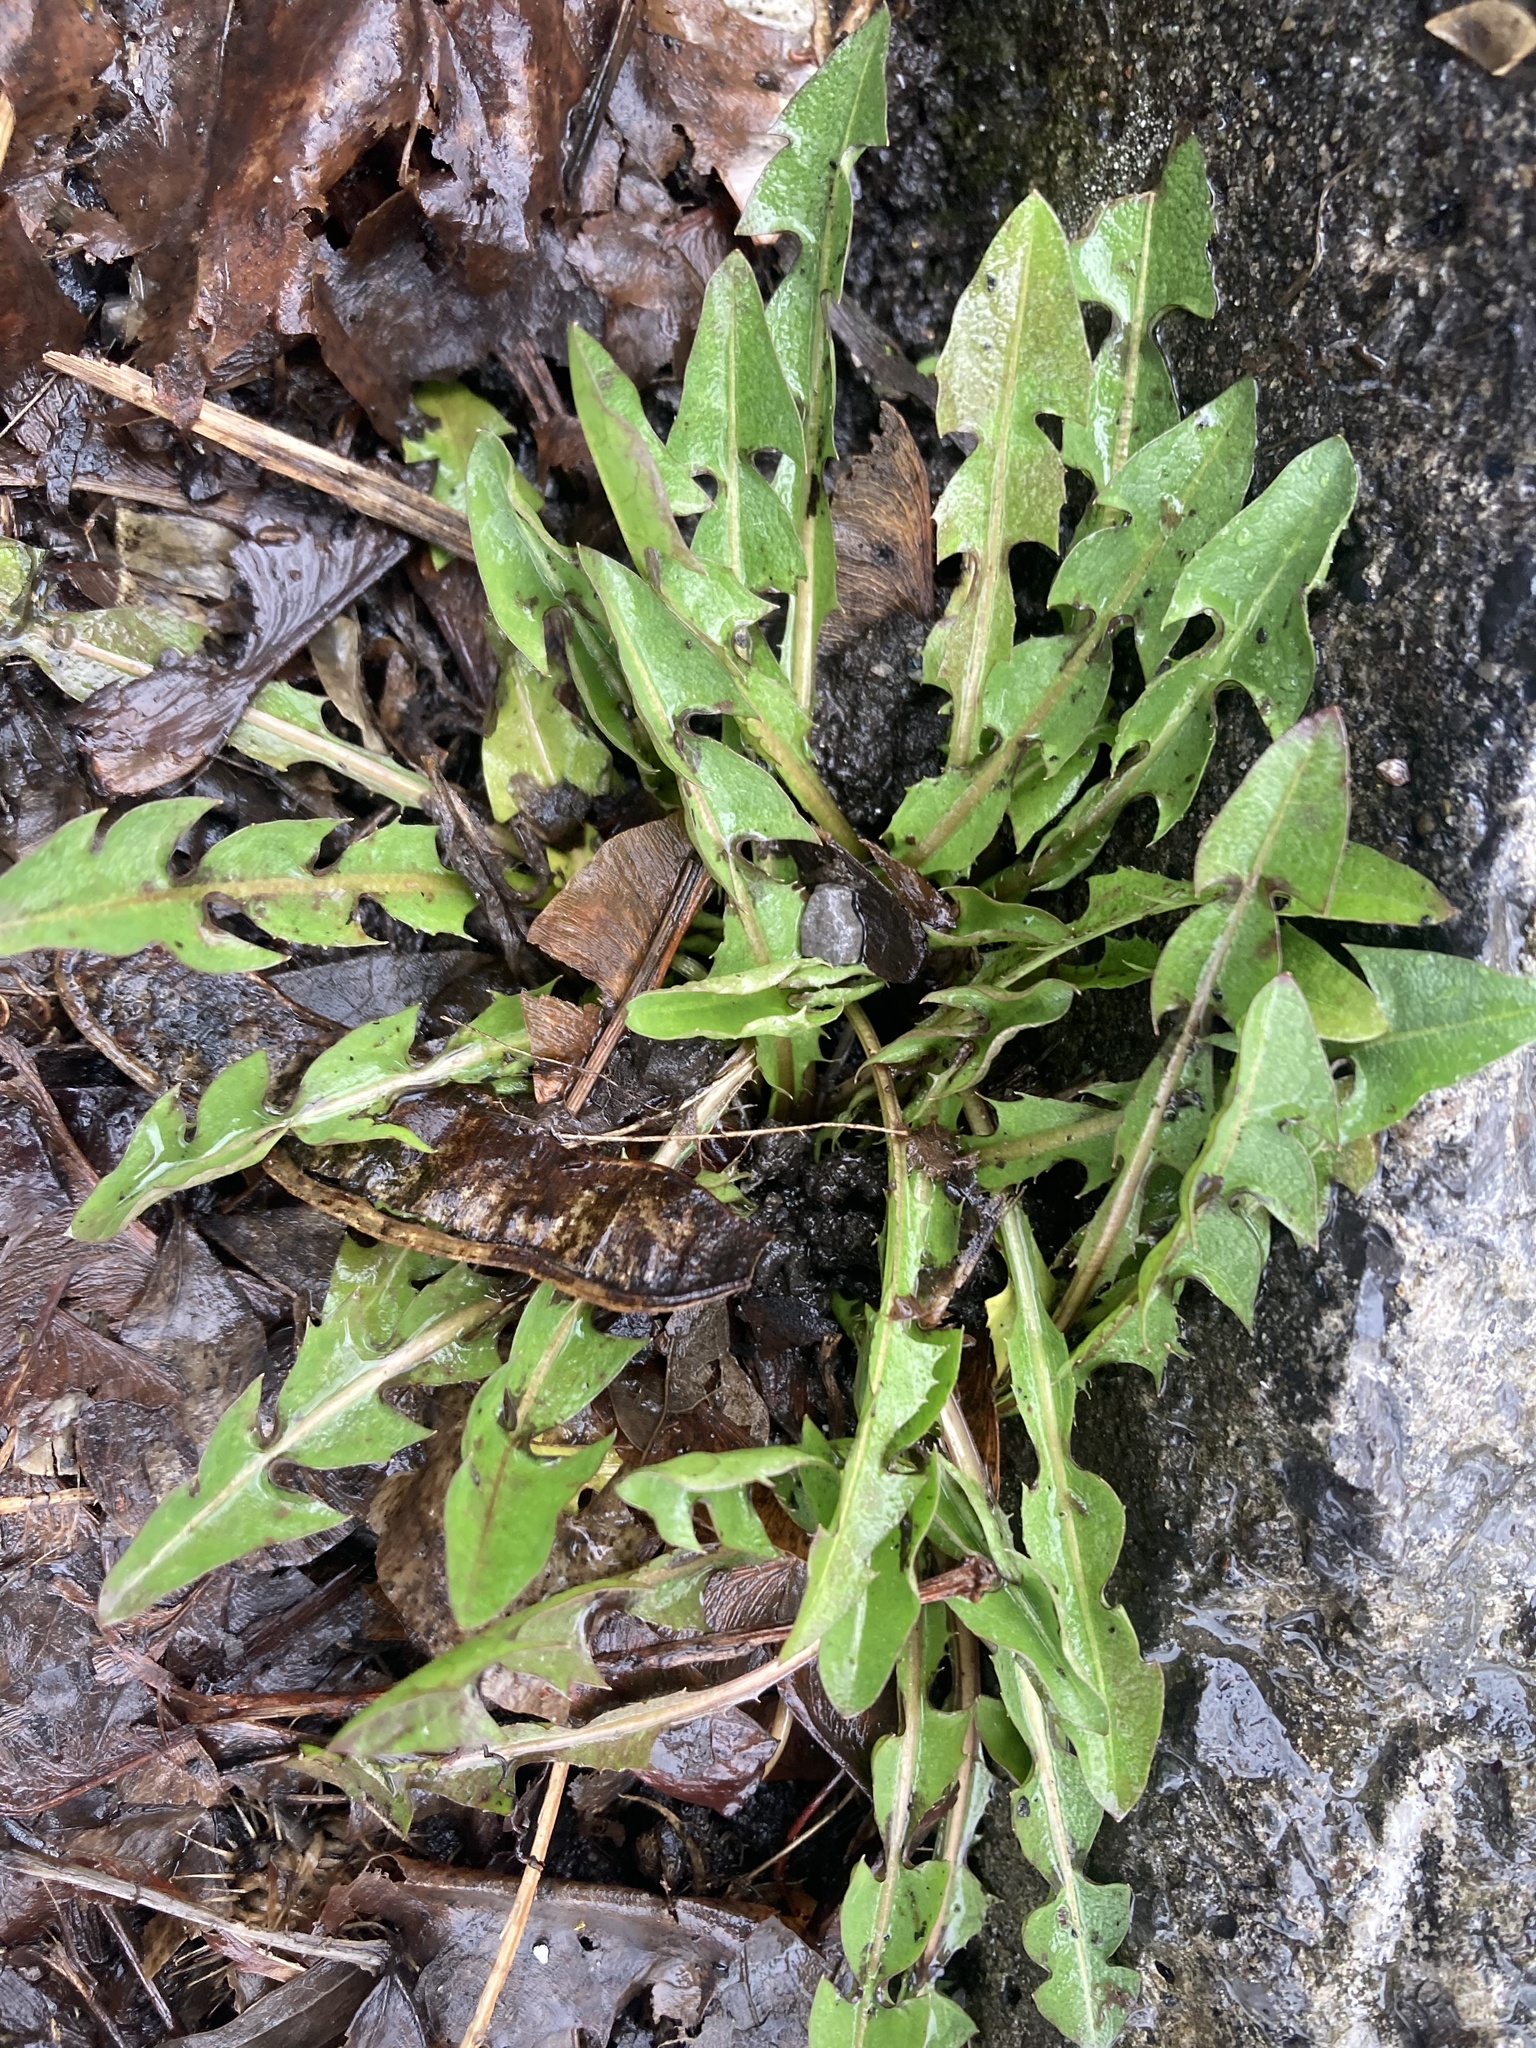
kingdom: Plantae
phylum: Tracheophyta
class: Magnoliopsida
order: Asterales
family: Asteraceae
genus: Taraxacum
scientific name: Taraxacum officinale
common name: Common dandelion
